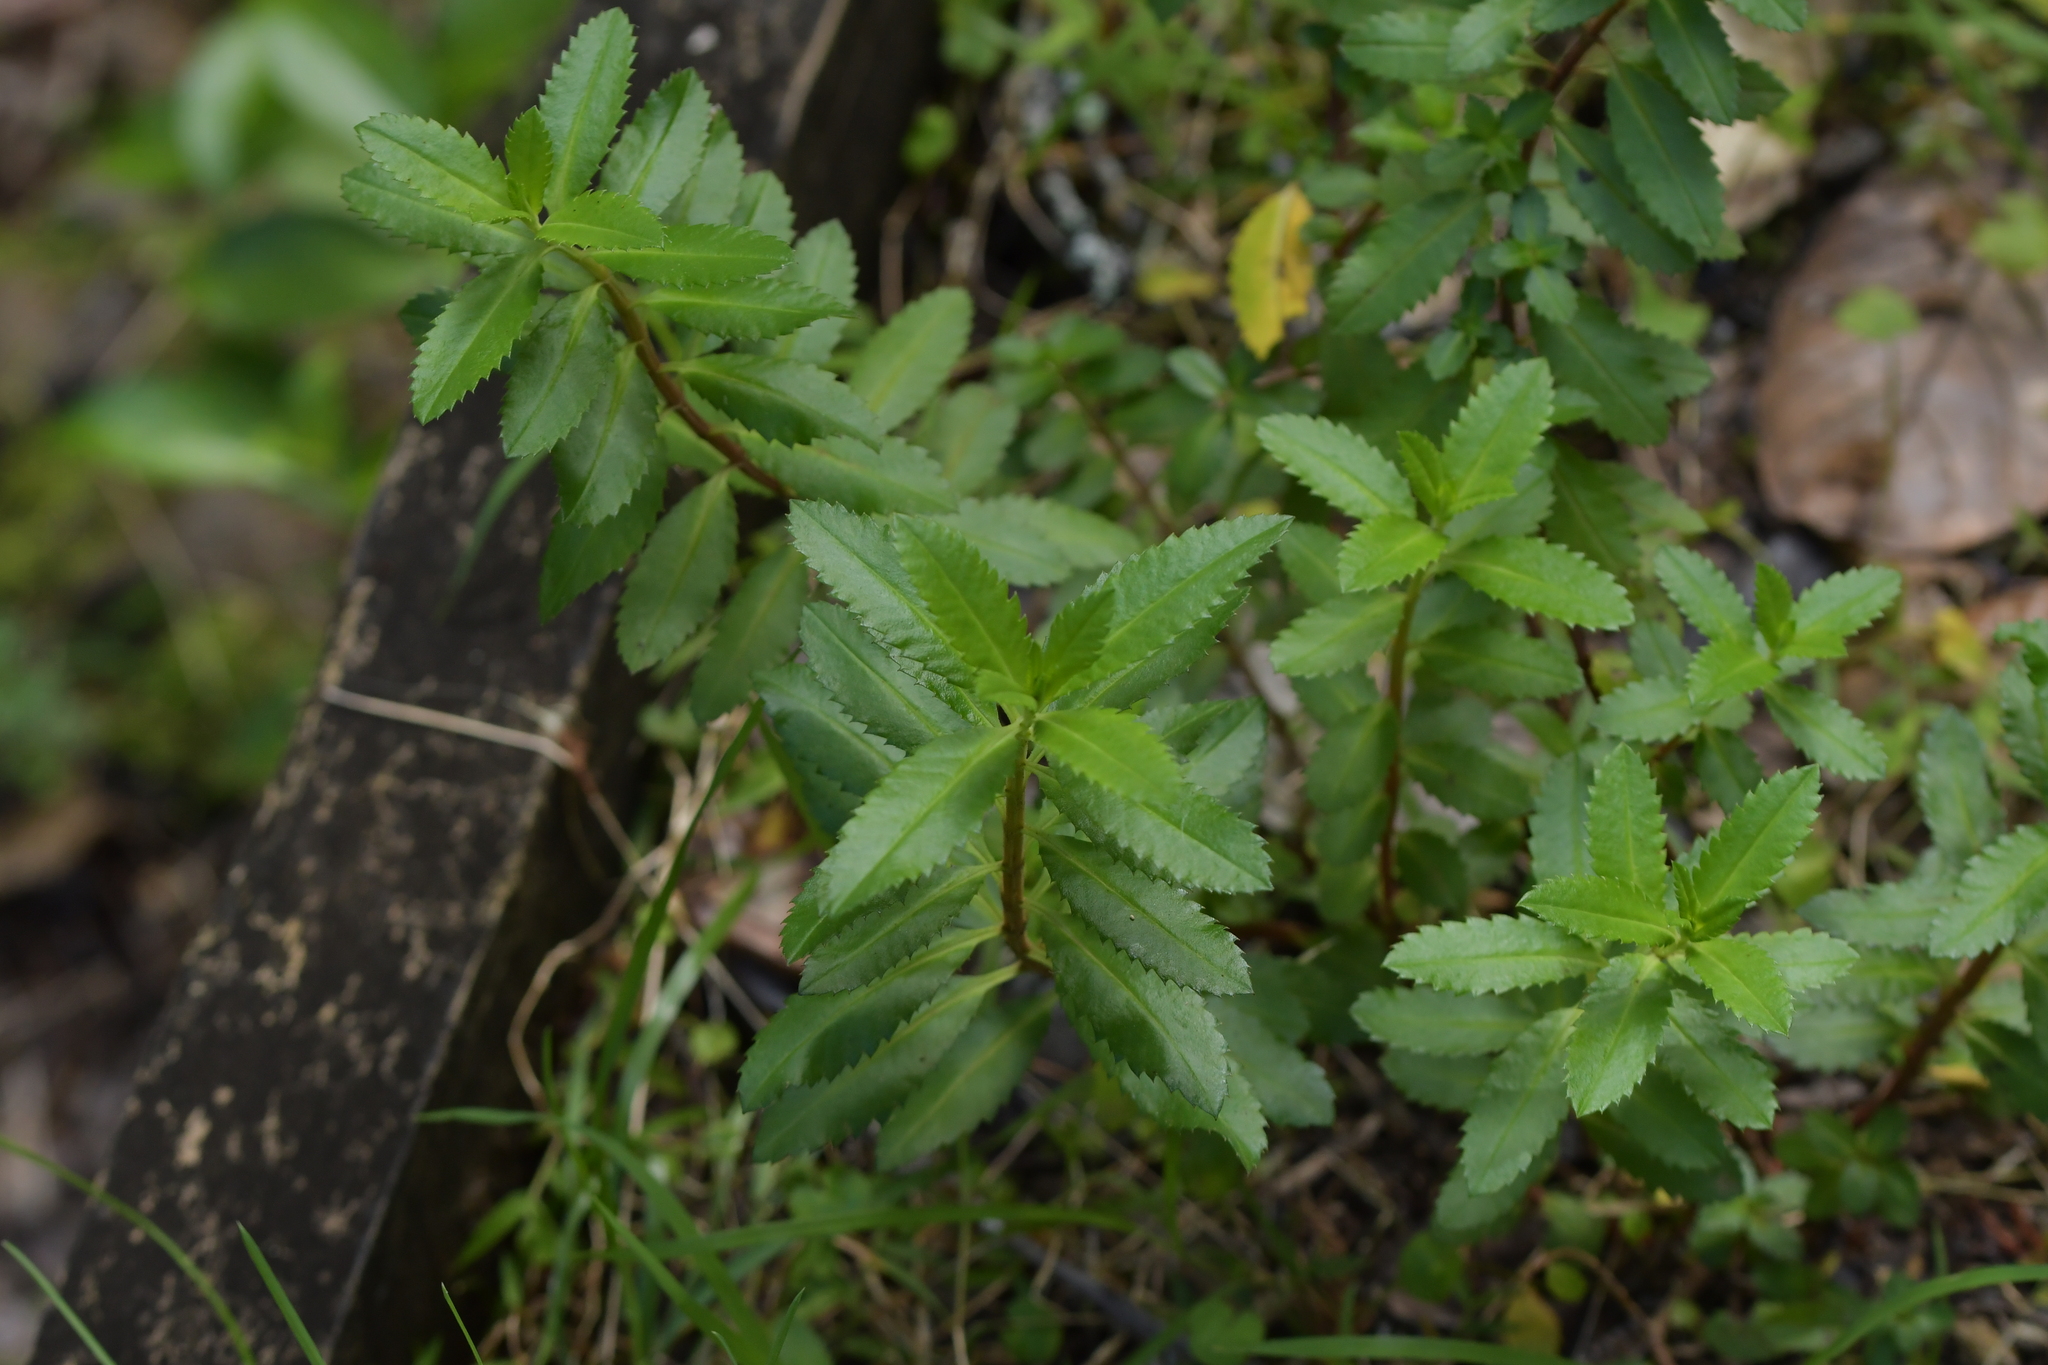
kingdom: Plantae
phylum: Tracheophyta
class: Magnoliopsida
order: Saxifragales
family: Haloragaceae
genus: Haloragis
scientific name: Haloragis erecta
